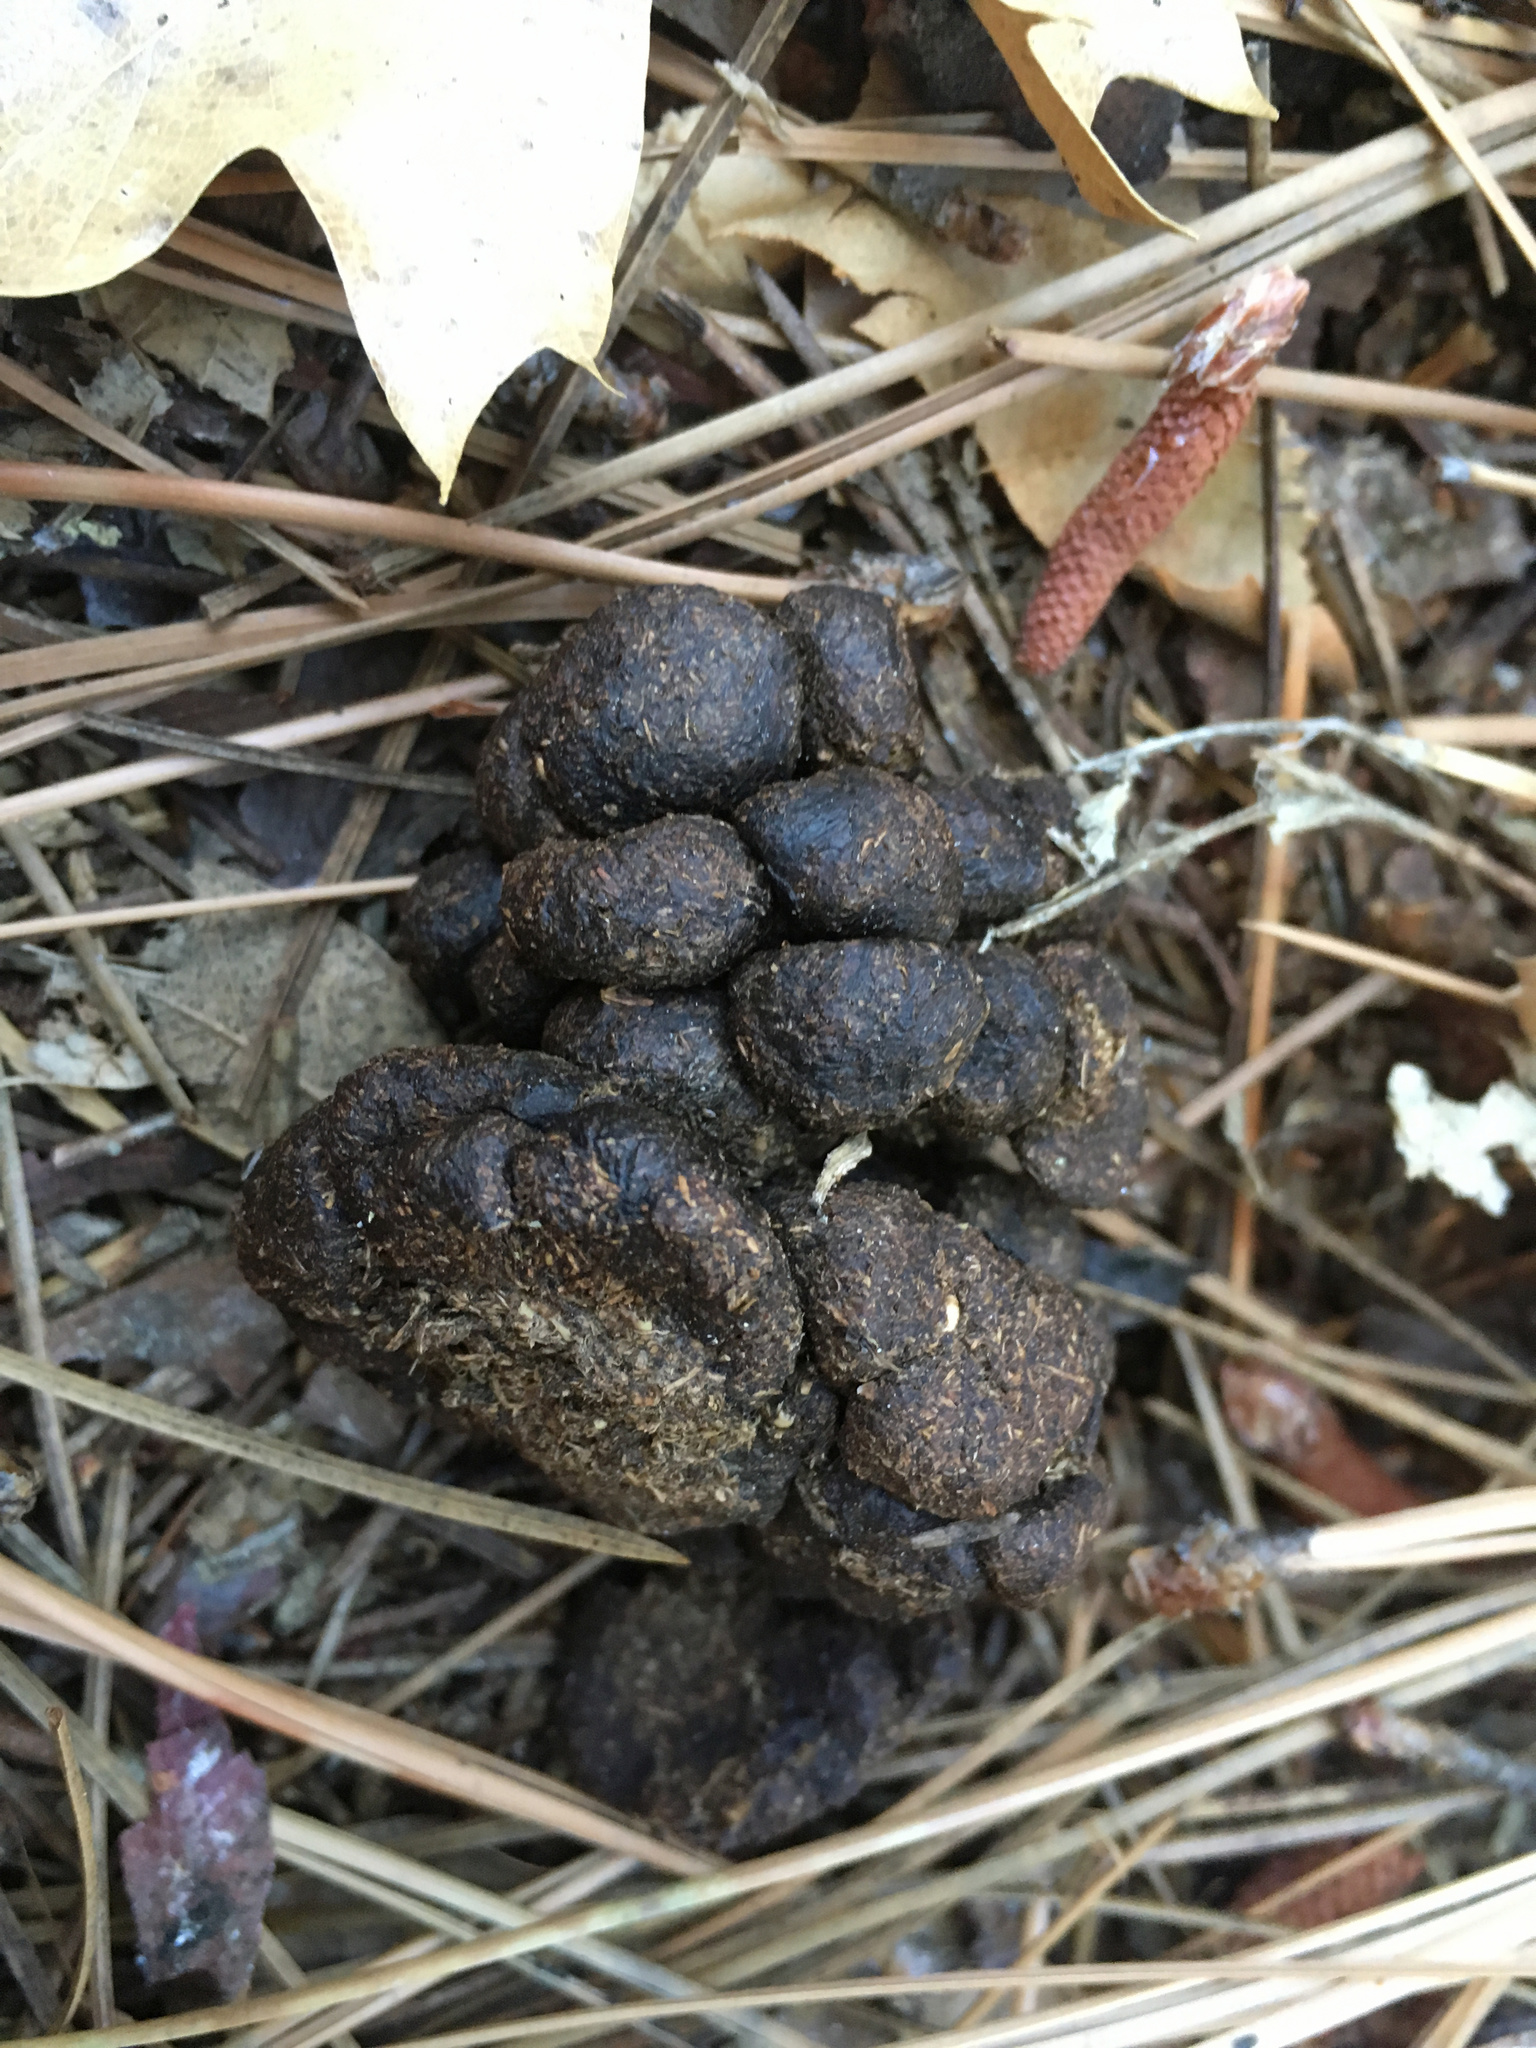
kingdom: Animalia
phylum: Chordata
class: Mammalia
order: Artiodactyla
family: Cervidae
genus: Odocoileus
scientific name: Odocoileus hemionus
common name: Mule deer
